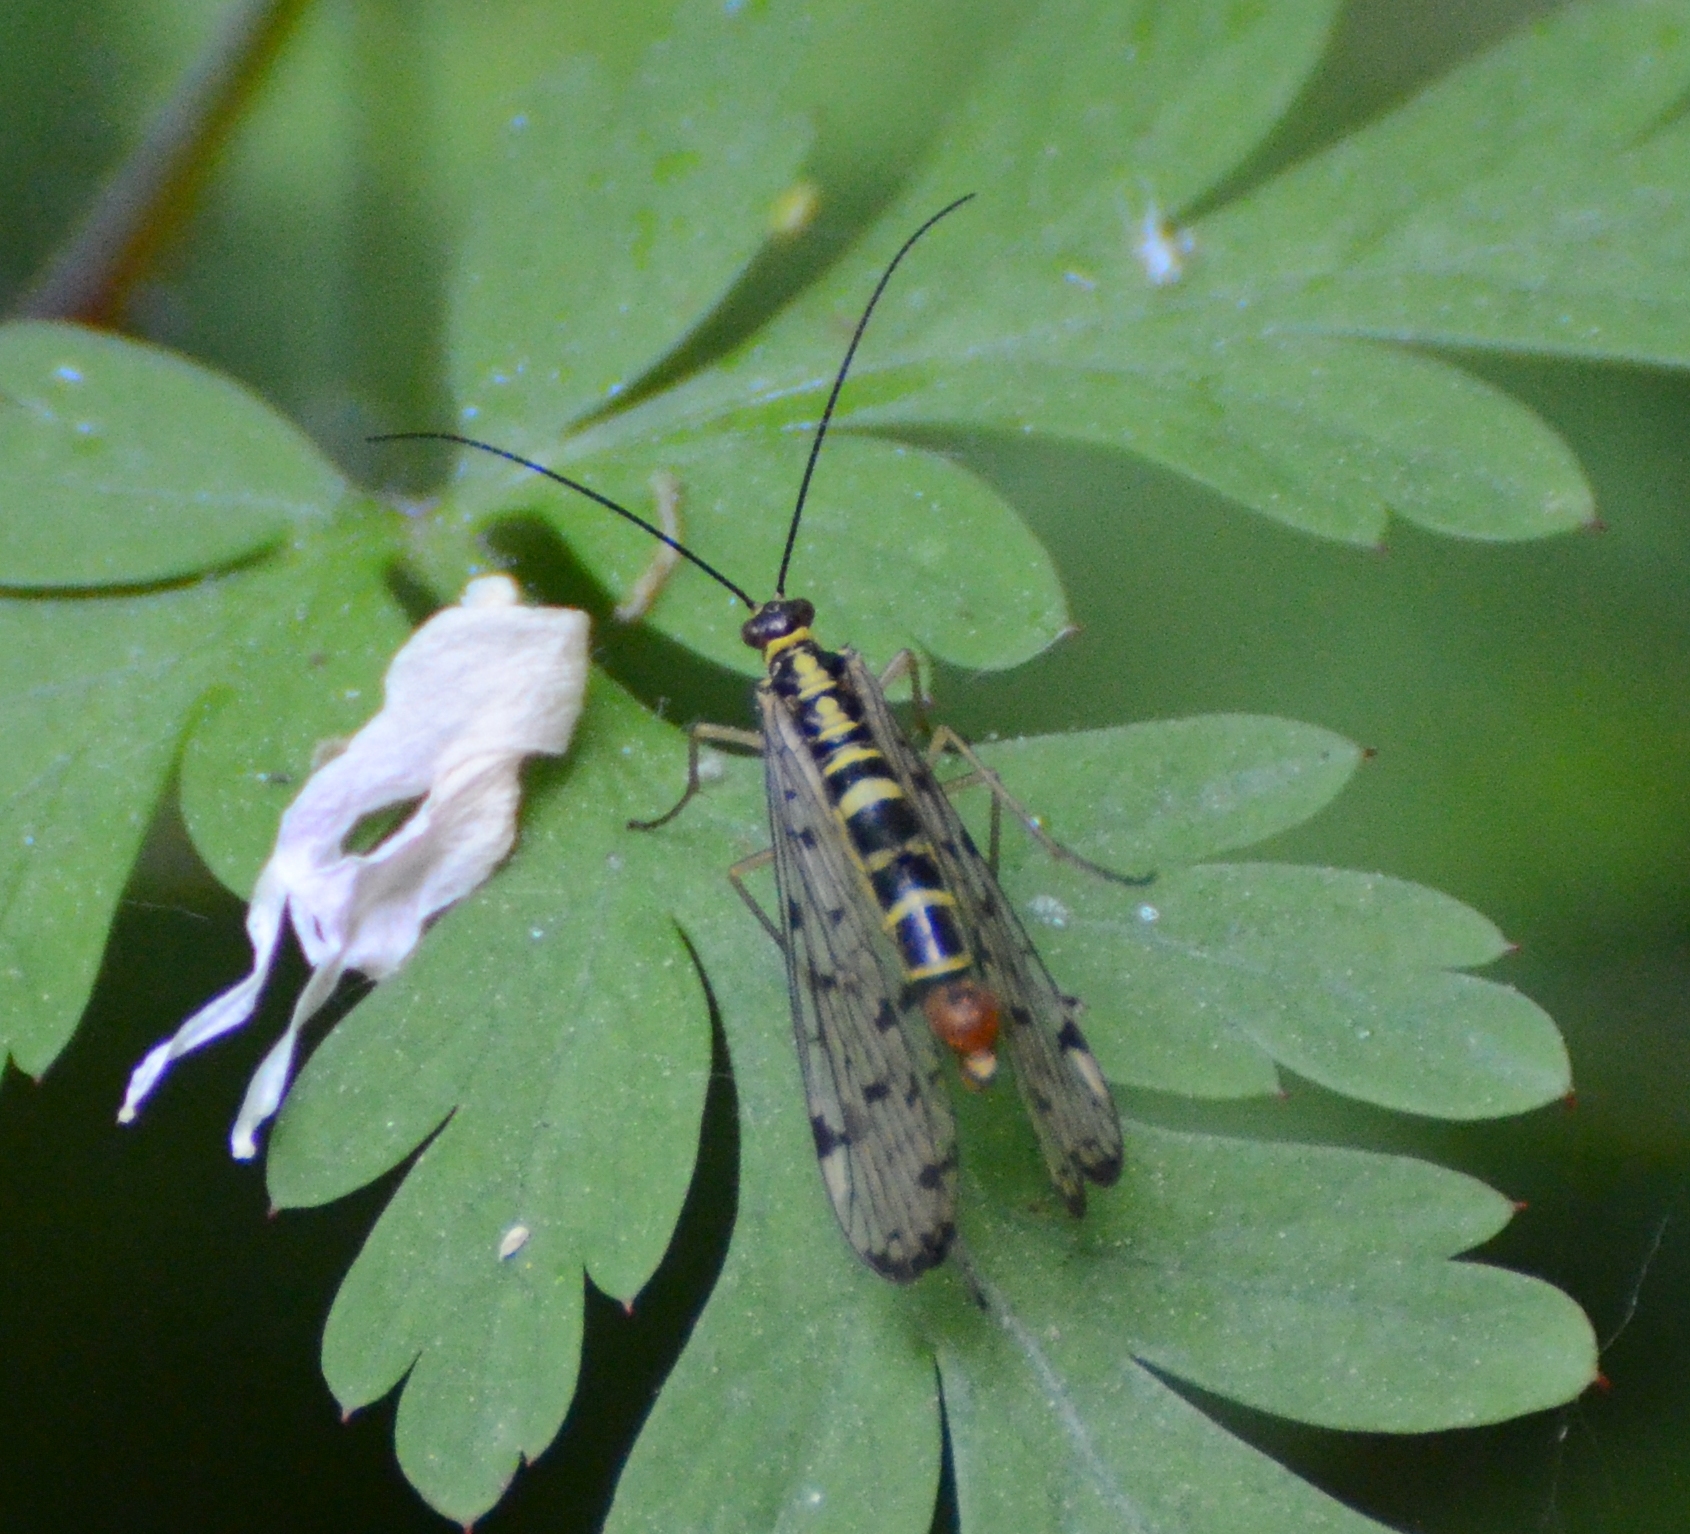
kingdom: Animalia
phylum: Arthropoda
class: Insecta
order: Mecoptera
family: Panorpidae
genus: Panorpa
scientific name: Panorpa germanica
